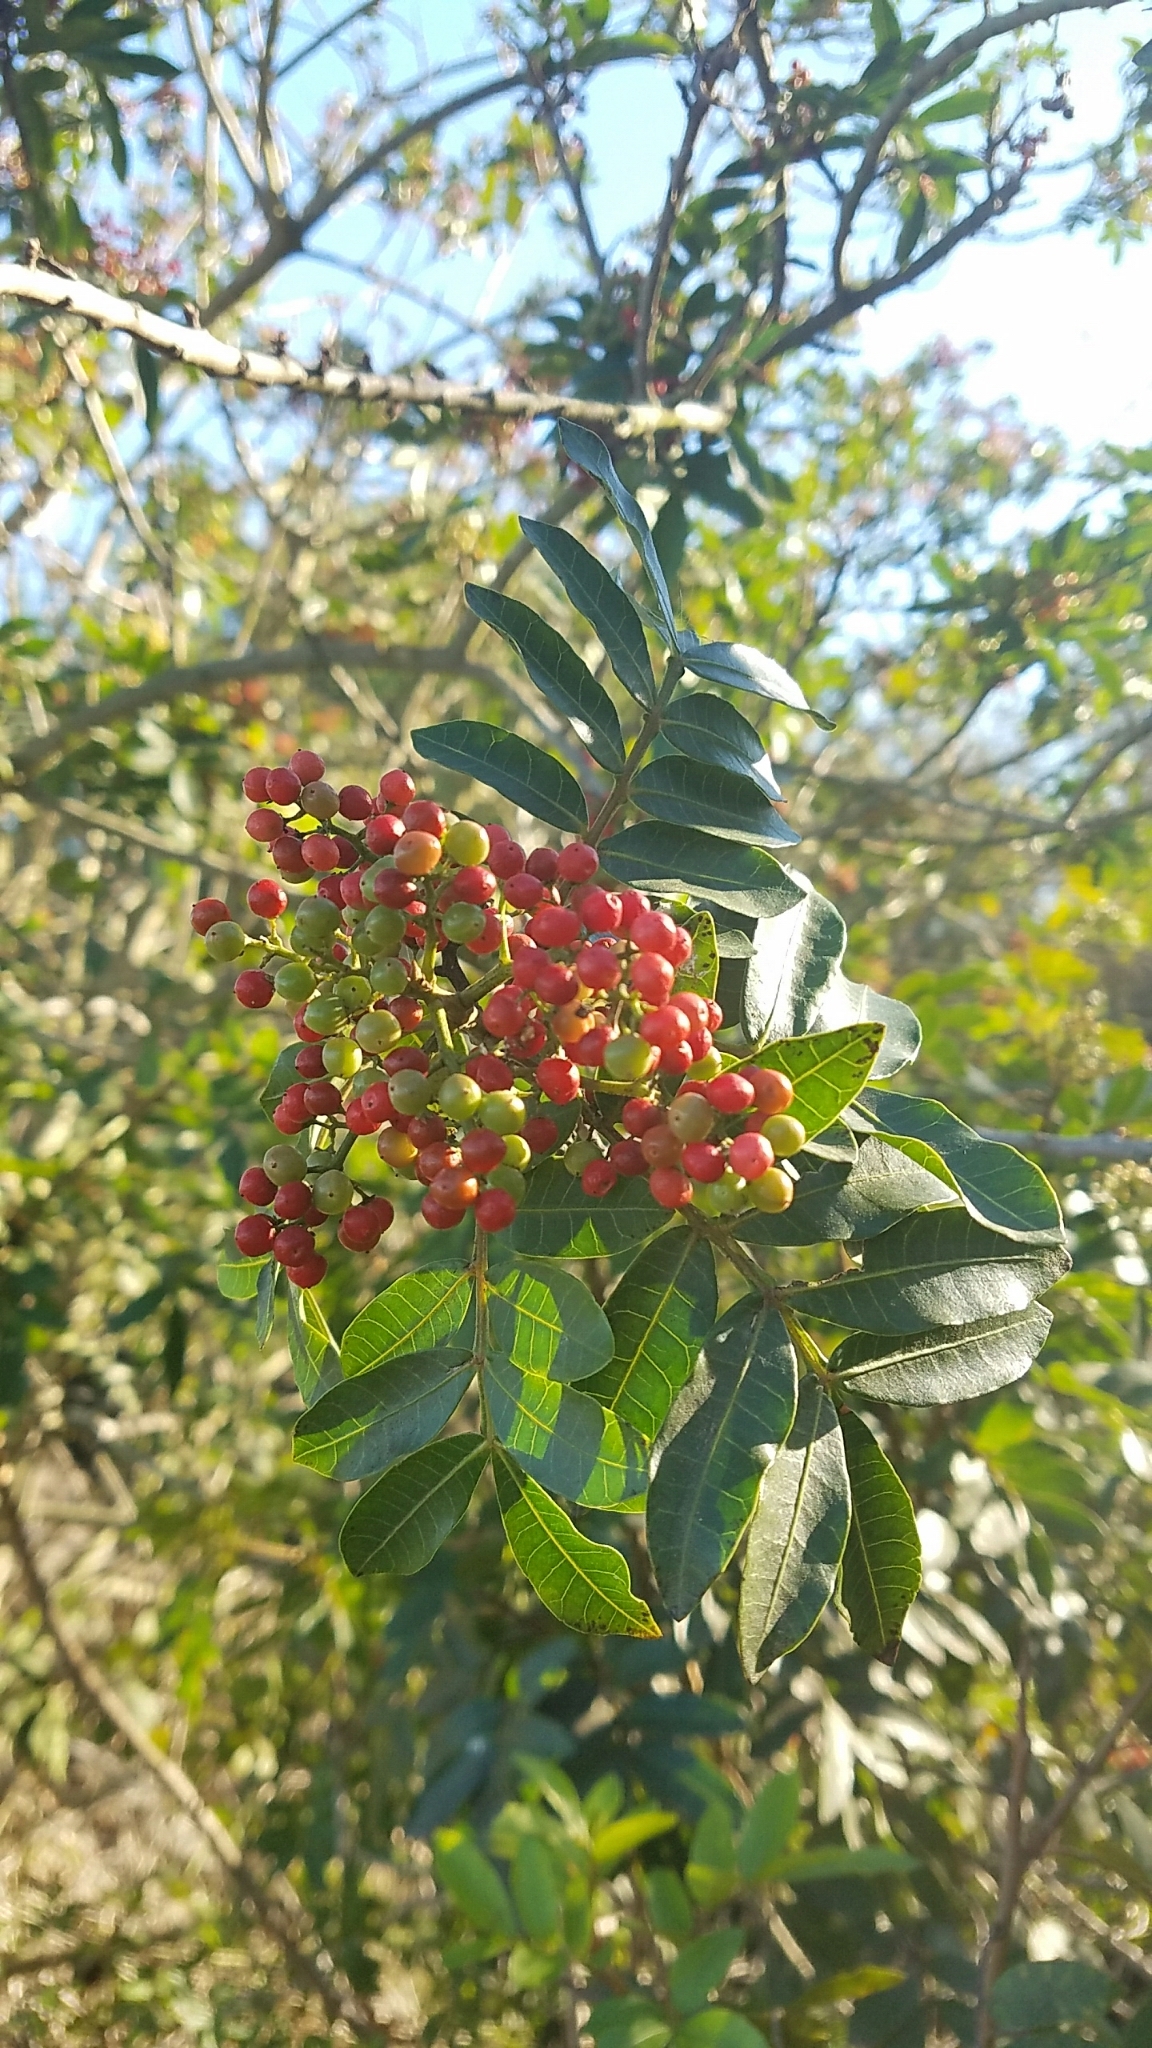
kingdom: Plantae
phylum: Tracheophyta
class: Magnoliopsida
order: Sapindales
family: Anacardiaceae
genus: Schinus
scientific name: Schinus terebinthifolia
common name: Brazilian peppertree
